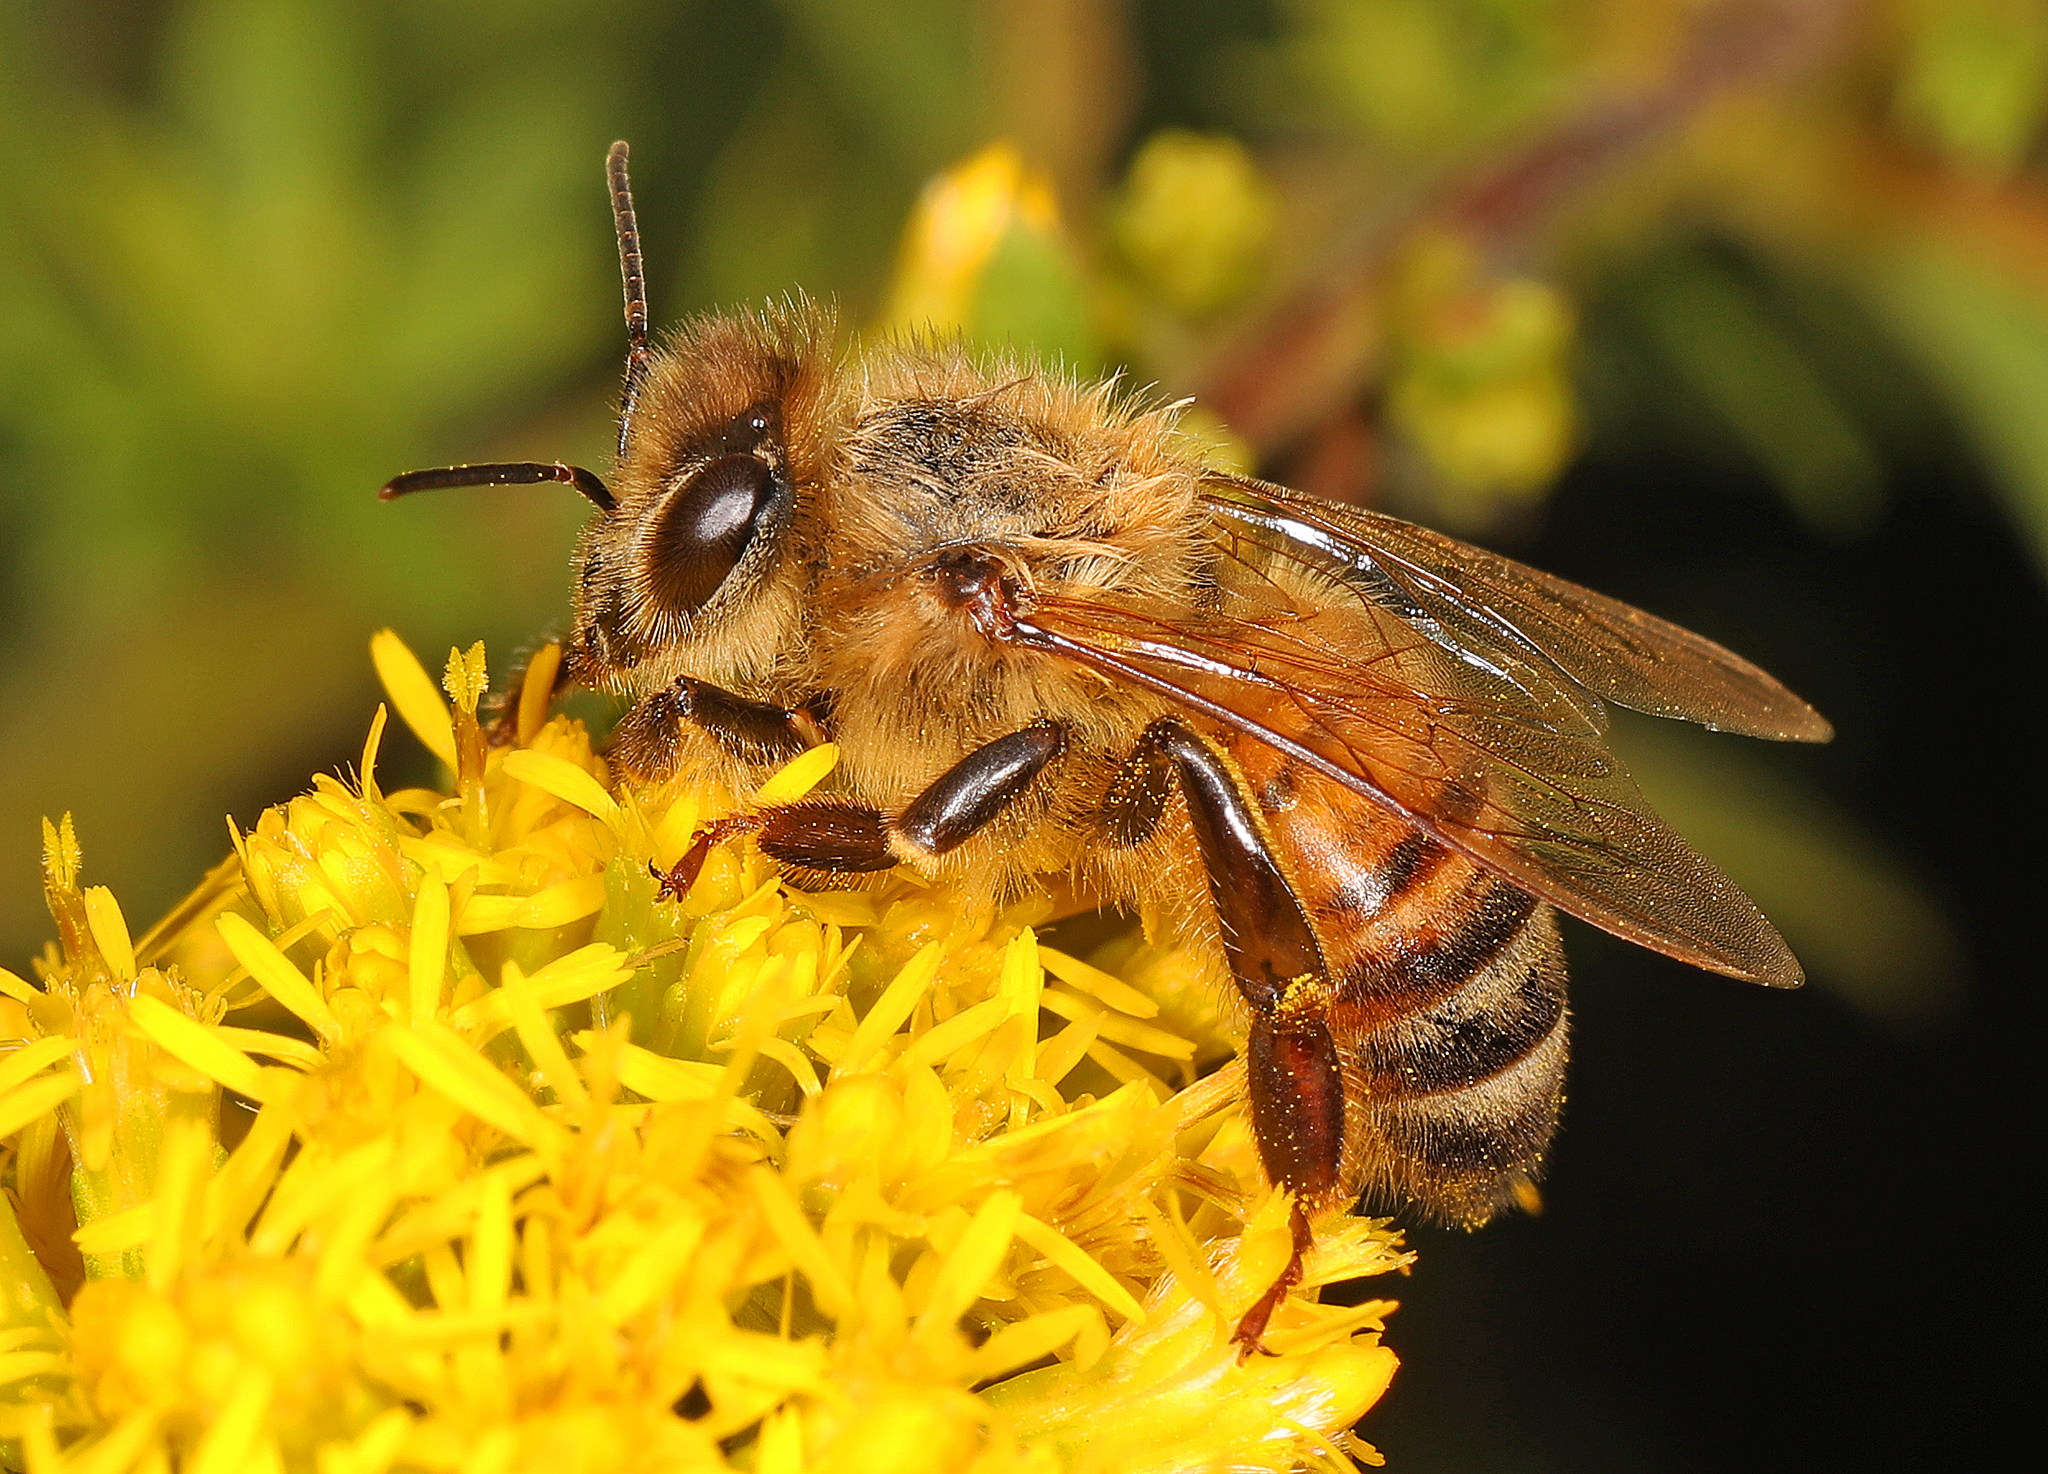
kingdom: Animalia
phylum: Arthropoda
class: Insecta
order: Hymenoptera
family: Apidae
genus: Apis
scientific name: Apis mellifera
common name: Honey bee
